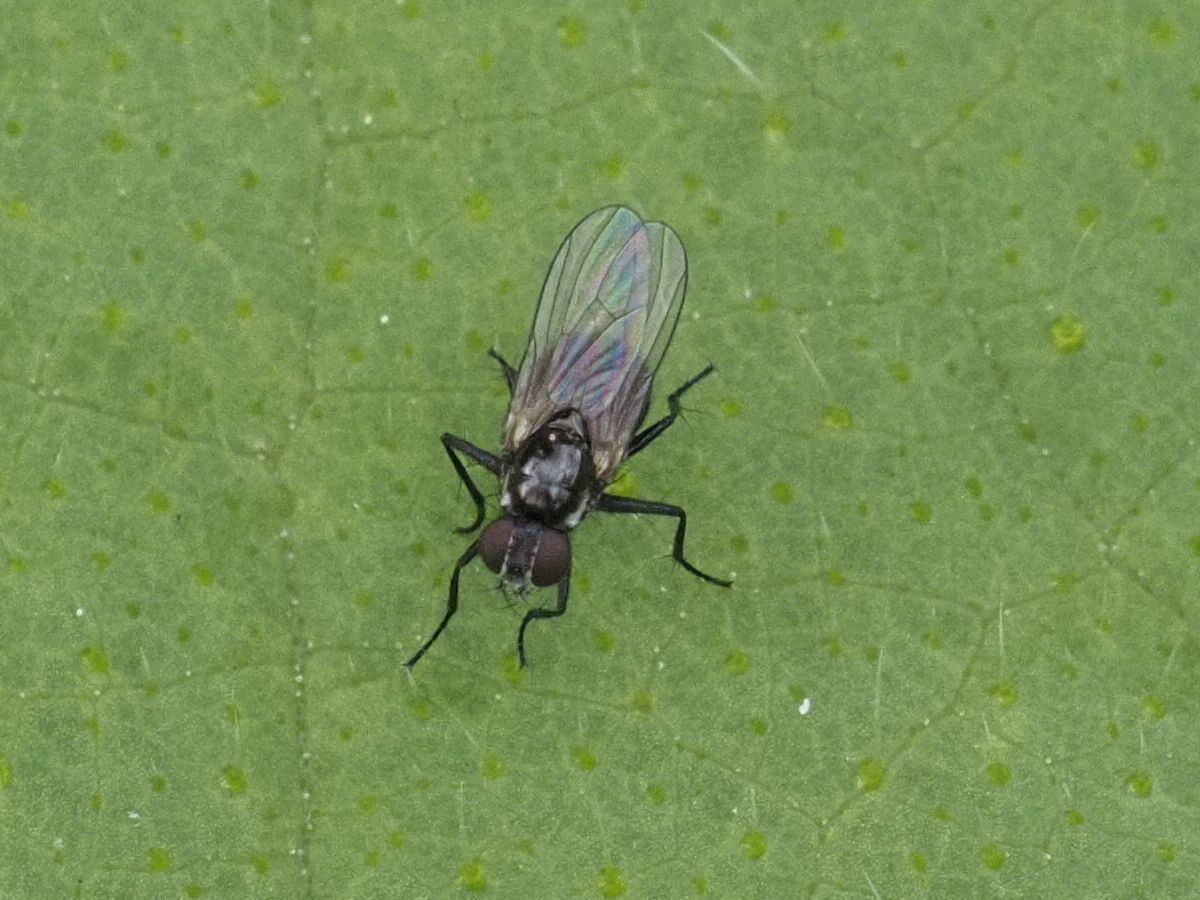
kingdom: Animalia
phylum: Arthropoda
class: Insecta
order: Diptera
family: Muscidae
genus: Coenosia
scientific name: Coenosia atra
